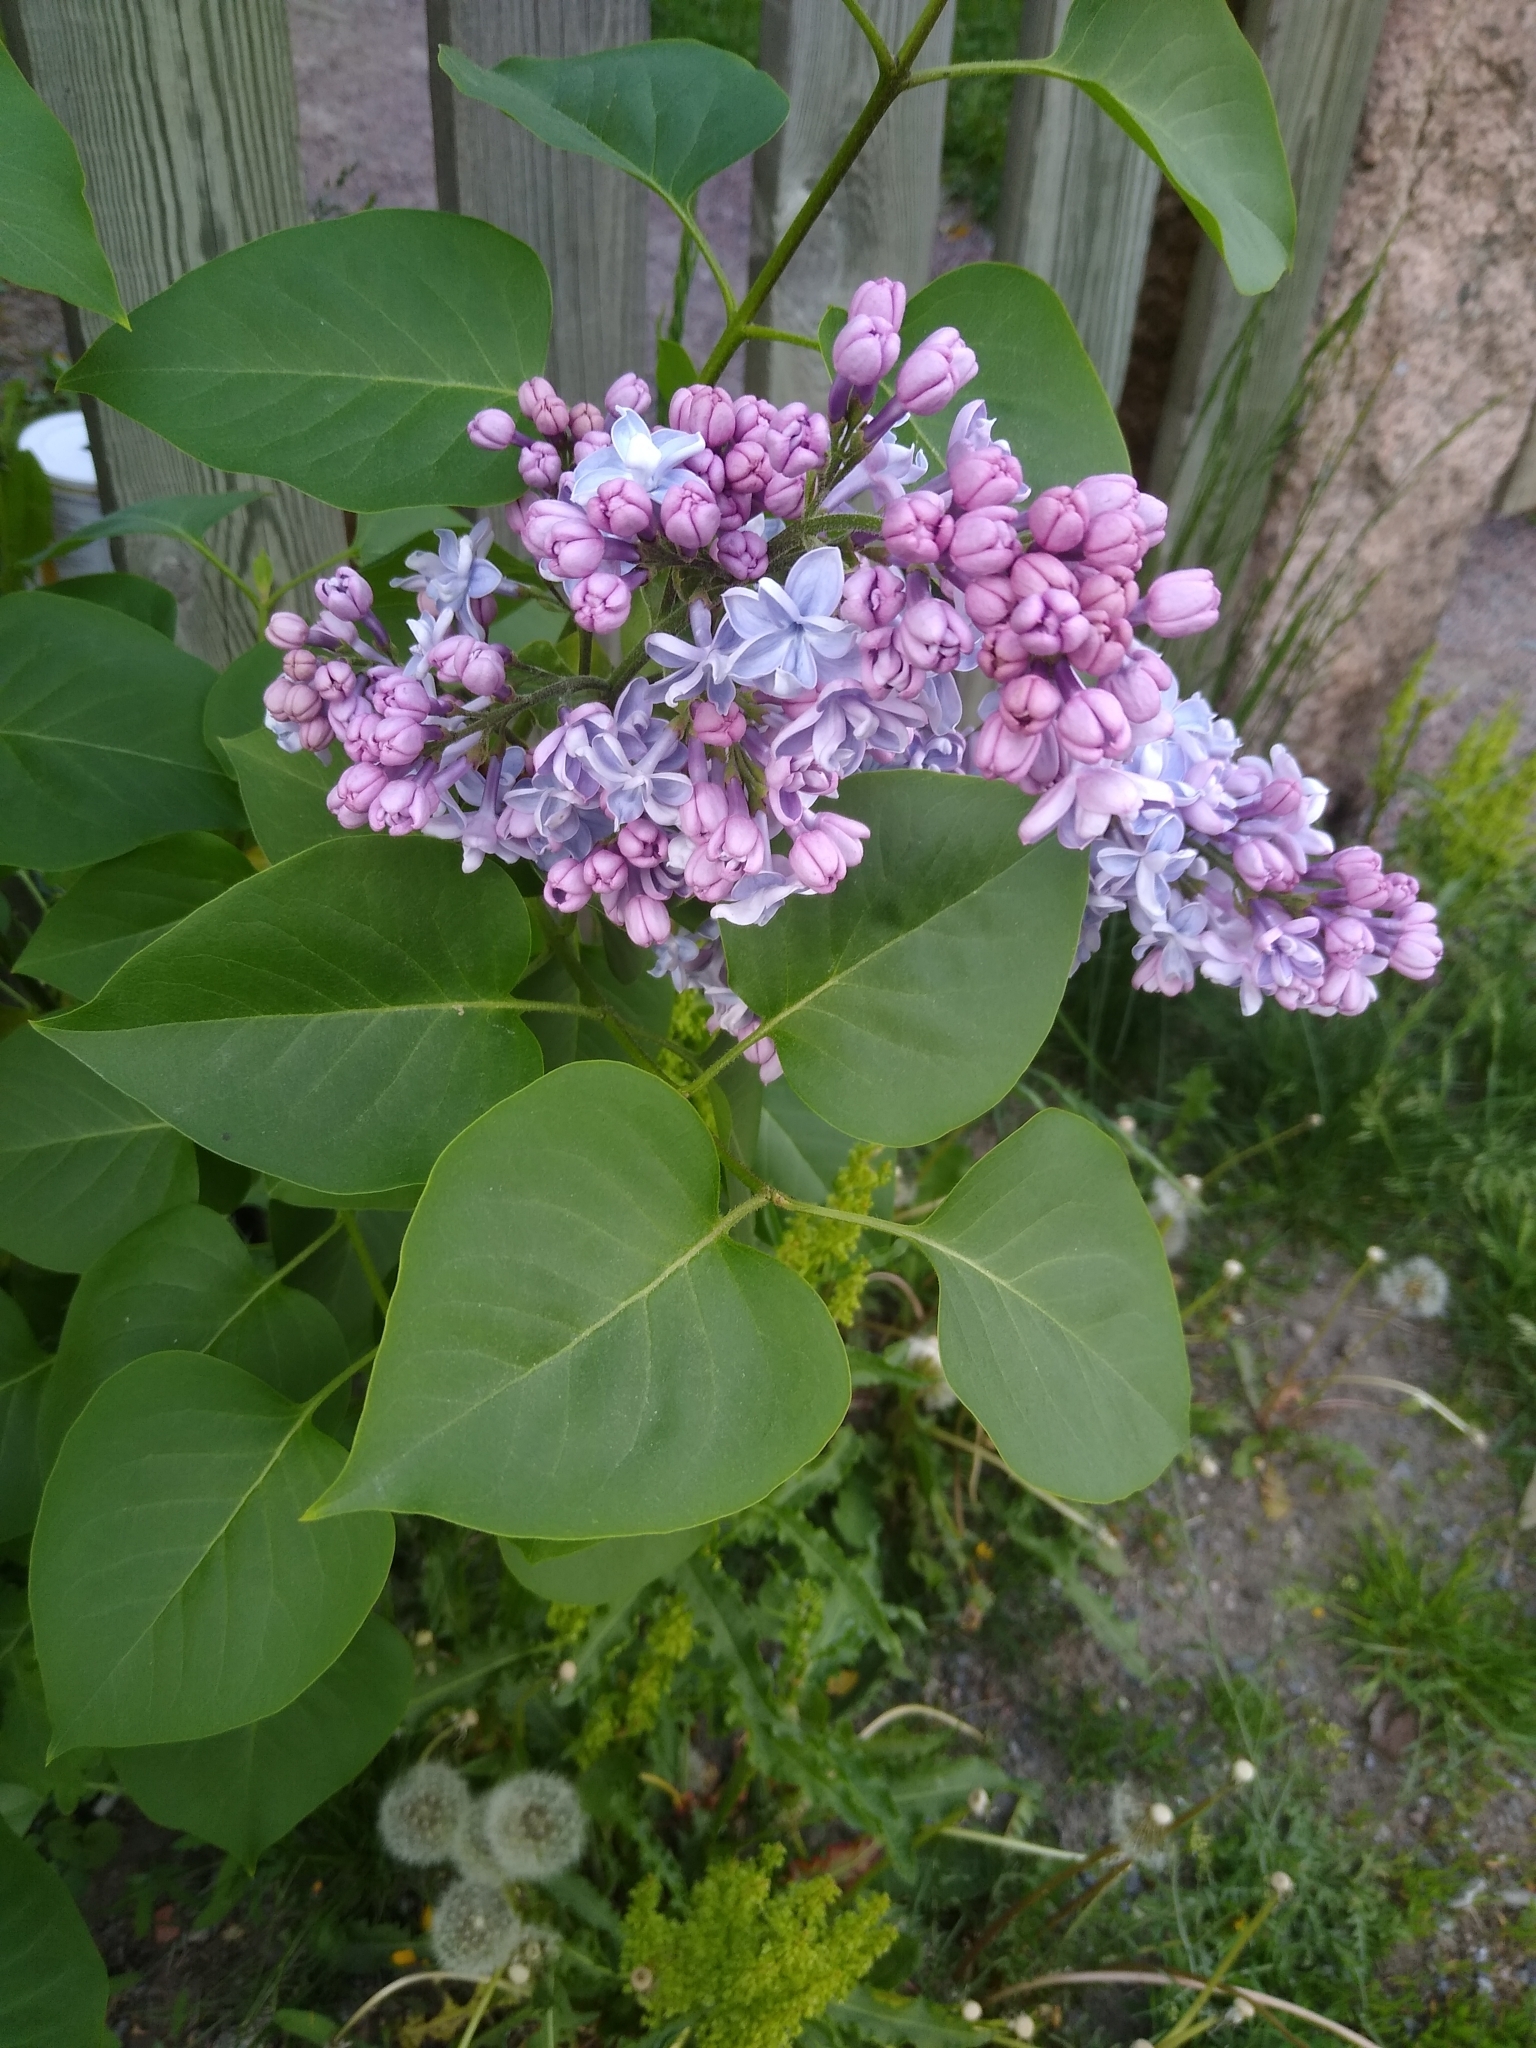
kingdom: Plantae
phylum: Tracheophyta
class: Magnoliopsida
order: Lamiales
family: Oleaceae
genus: Syringa
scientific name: Syringa vulgaris
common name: Common lilac
